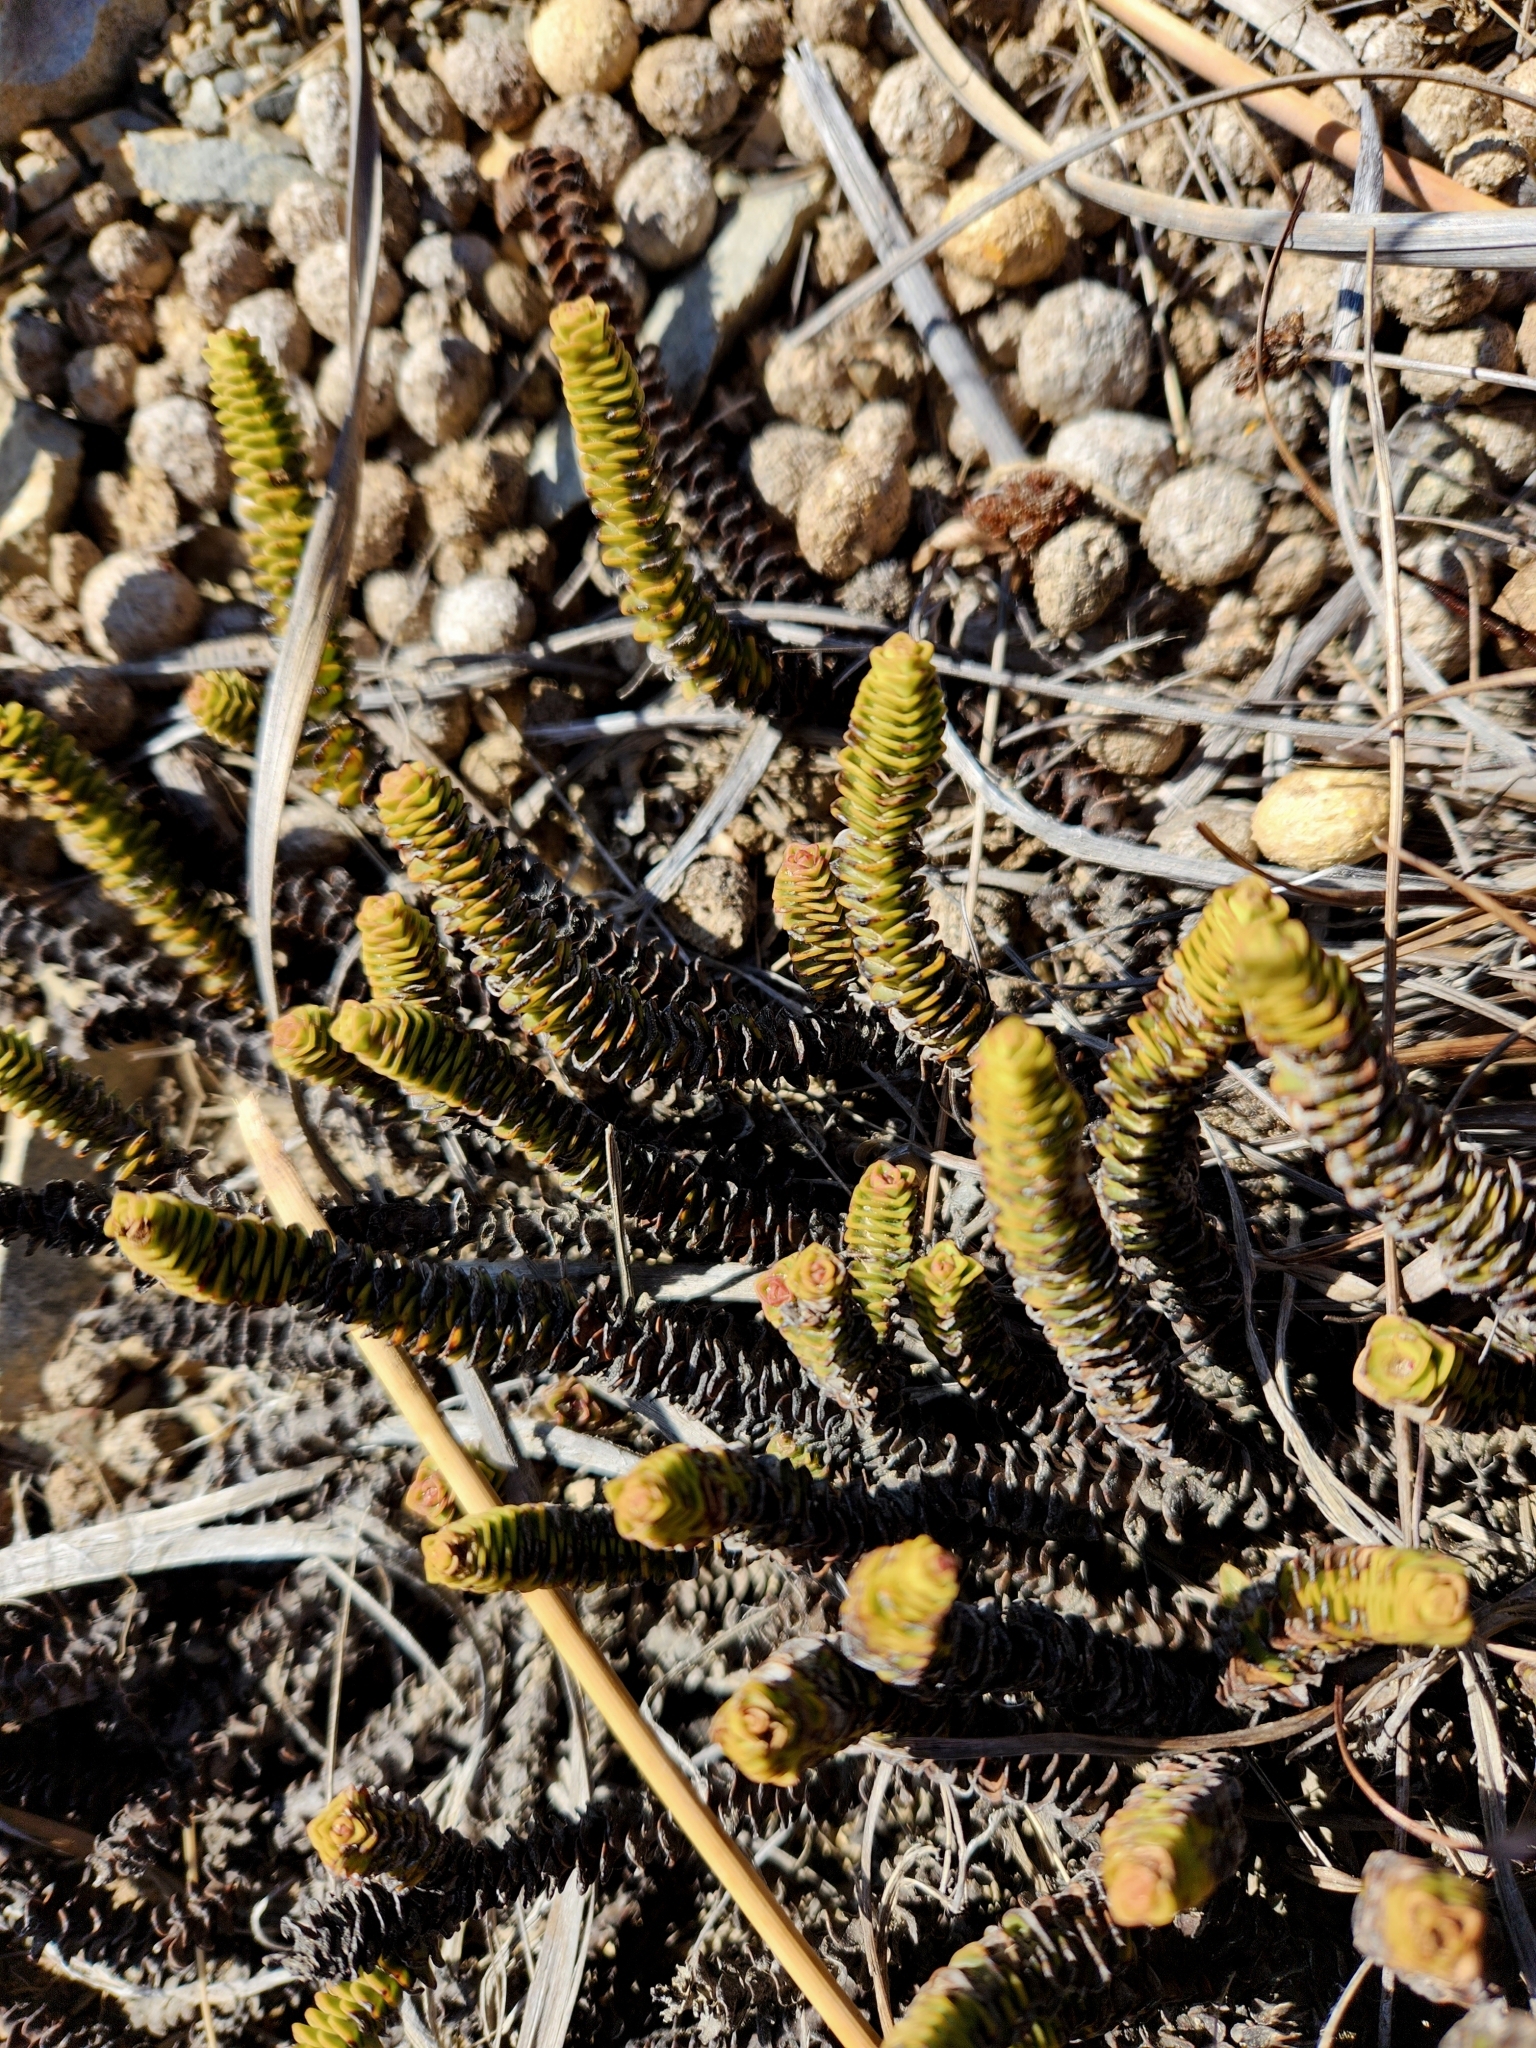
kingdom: Plantae
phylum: Tracheophyta
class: Magnoliopsida
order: Lamiales
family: Plantaginaceae
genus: Veronica
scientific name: Veronica epacridea
